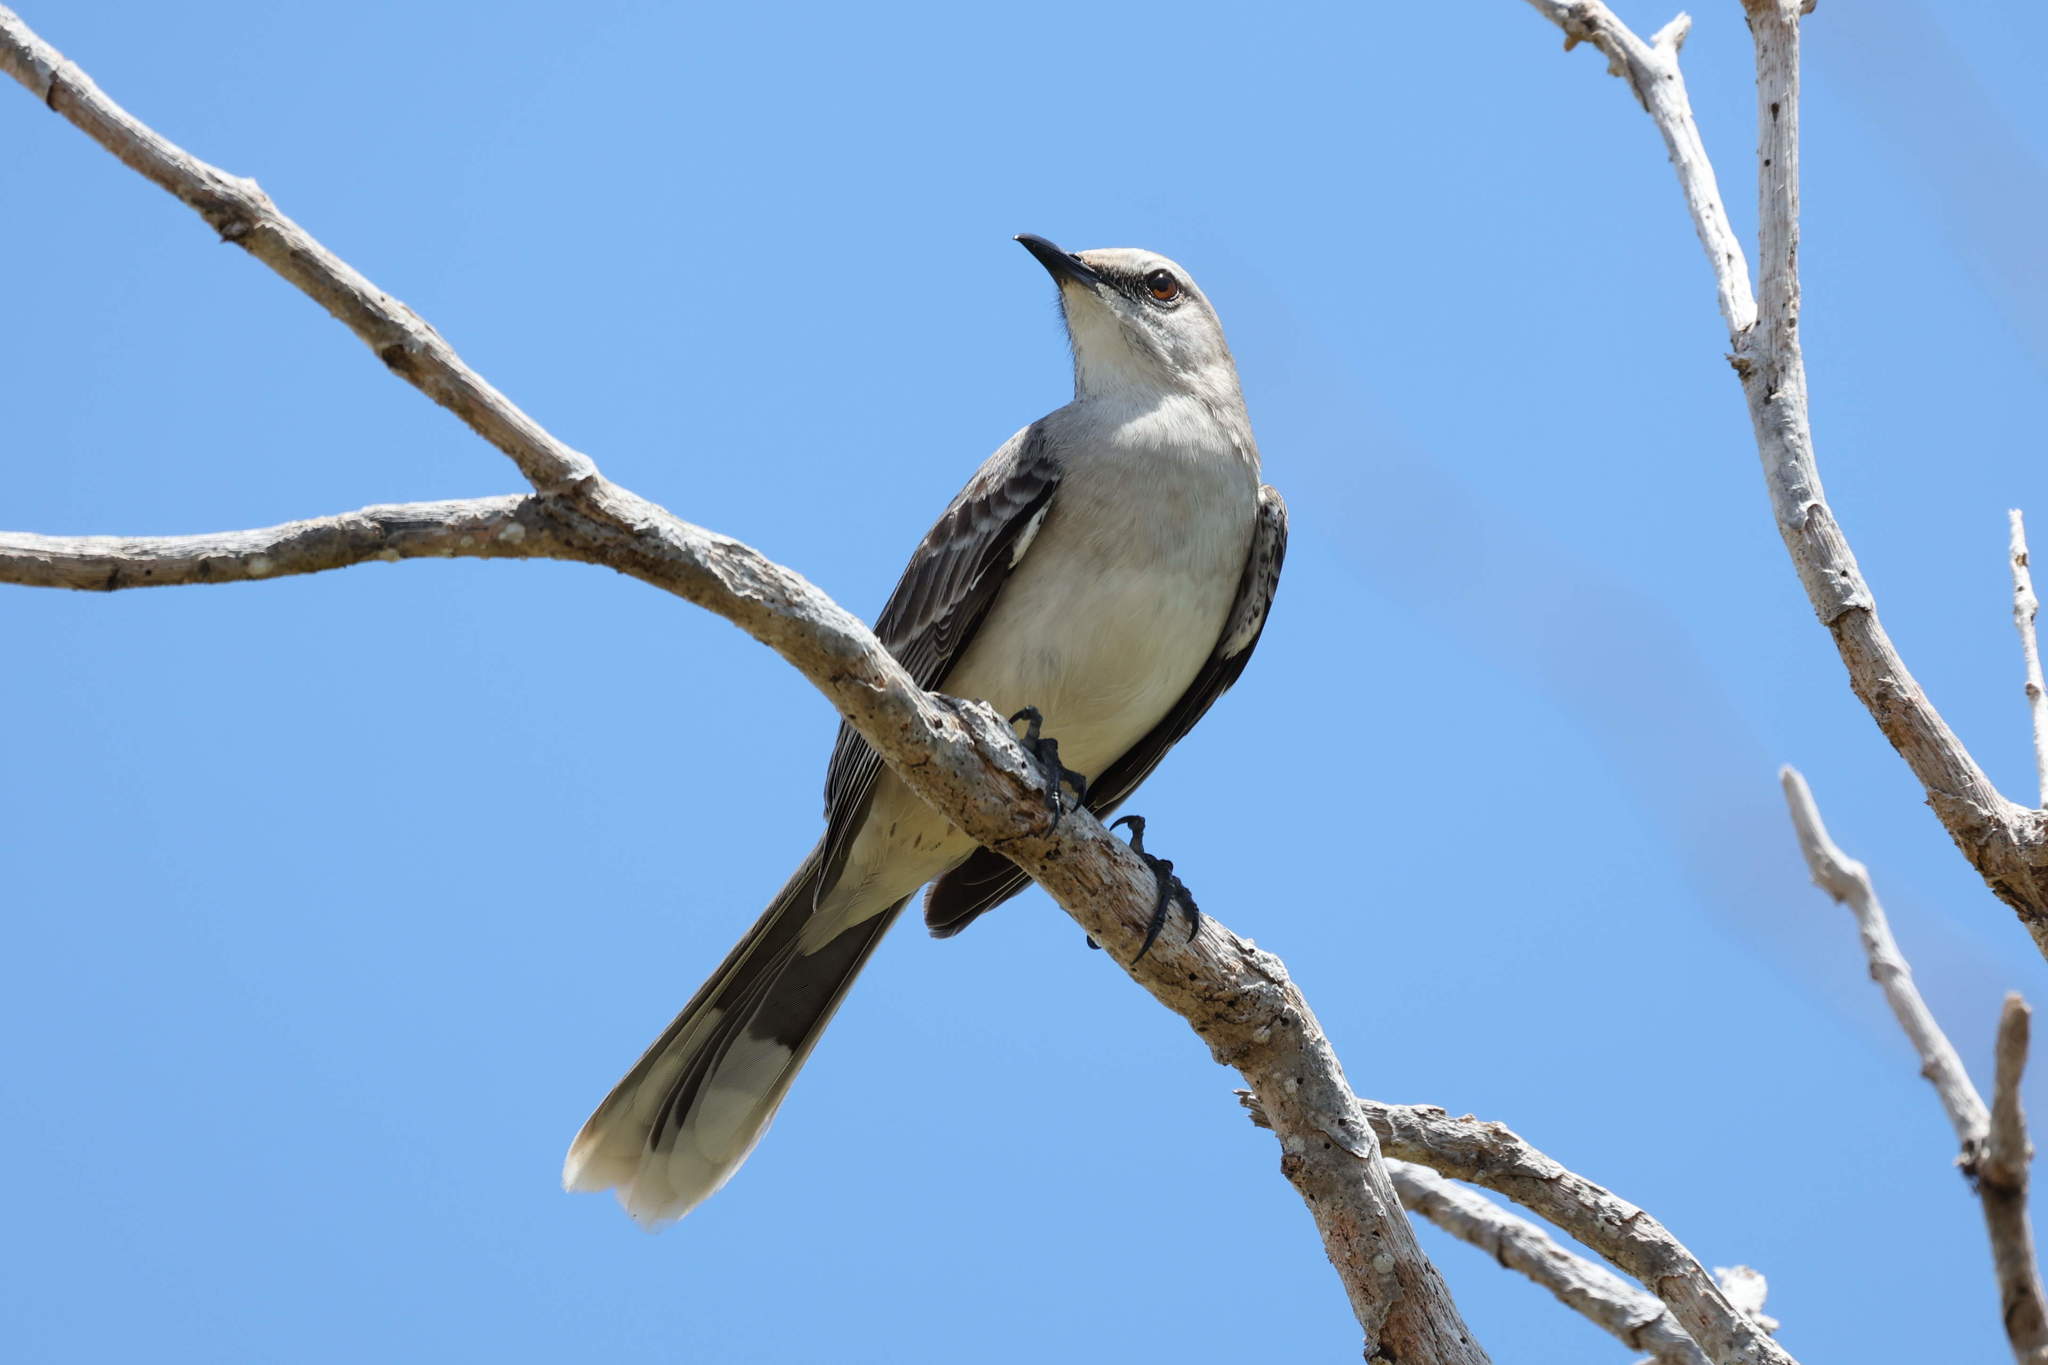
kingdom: Animalia
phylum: Chordata
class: Aves
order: Passeriformes
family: Mimidae
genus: Mimus
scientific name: Mimus gilvus
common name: Tropical mockingbird
